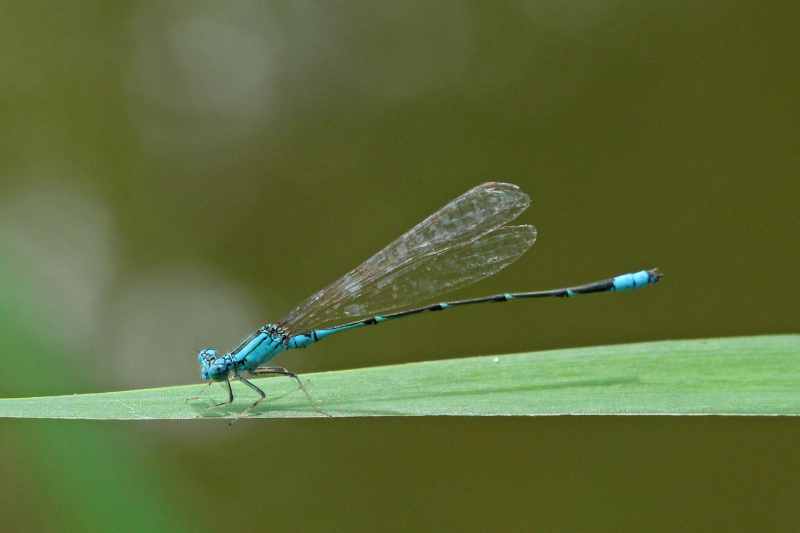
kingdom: Animalia
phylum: Arthropoda
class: Insecta
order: Odonata
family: Coenagrionidae
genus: Enallagma
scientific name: Enallagma traviatum
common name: Slender bluet
